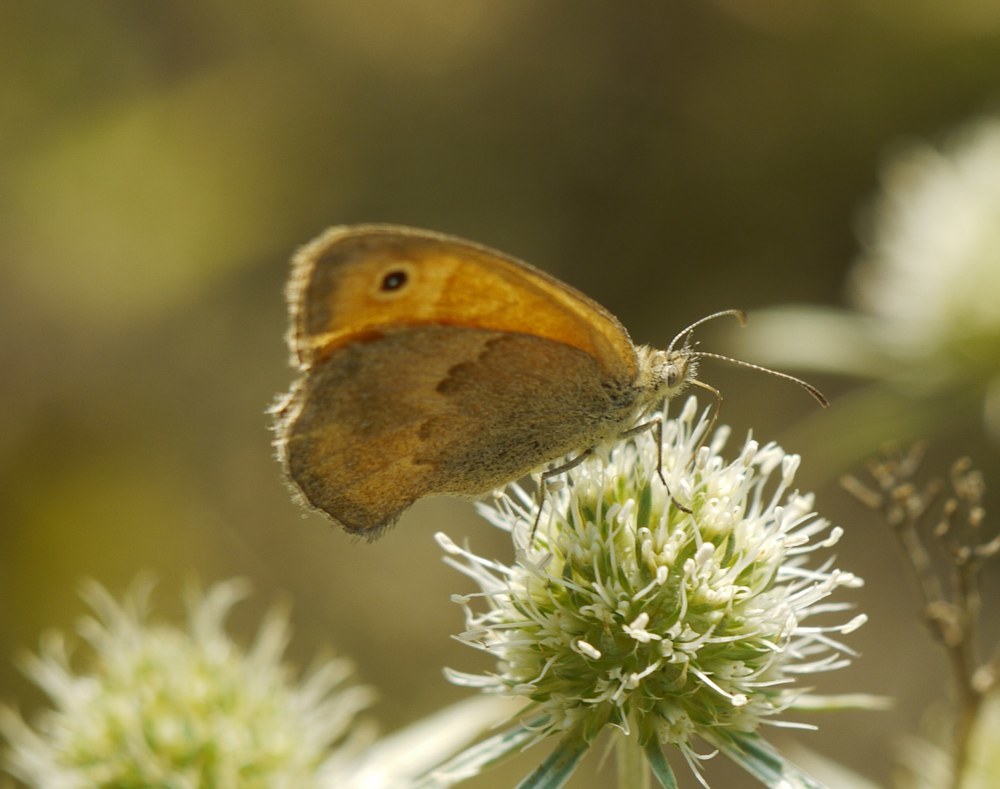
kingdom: Animalia
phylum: Arthropoda
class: Insecta
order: Lepidoptera
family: Nymphalidae
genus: Coenonympha
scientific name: Coenonympha pamphilus
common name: Small heath
